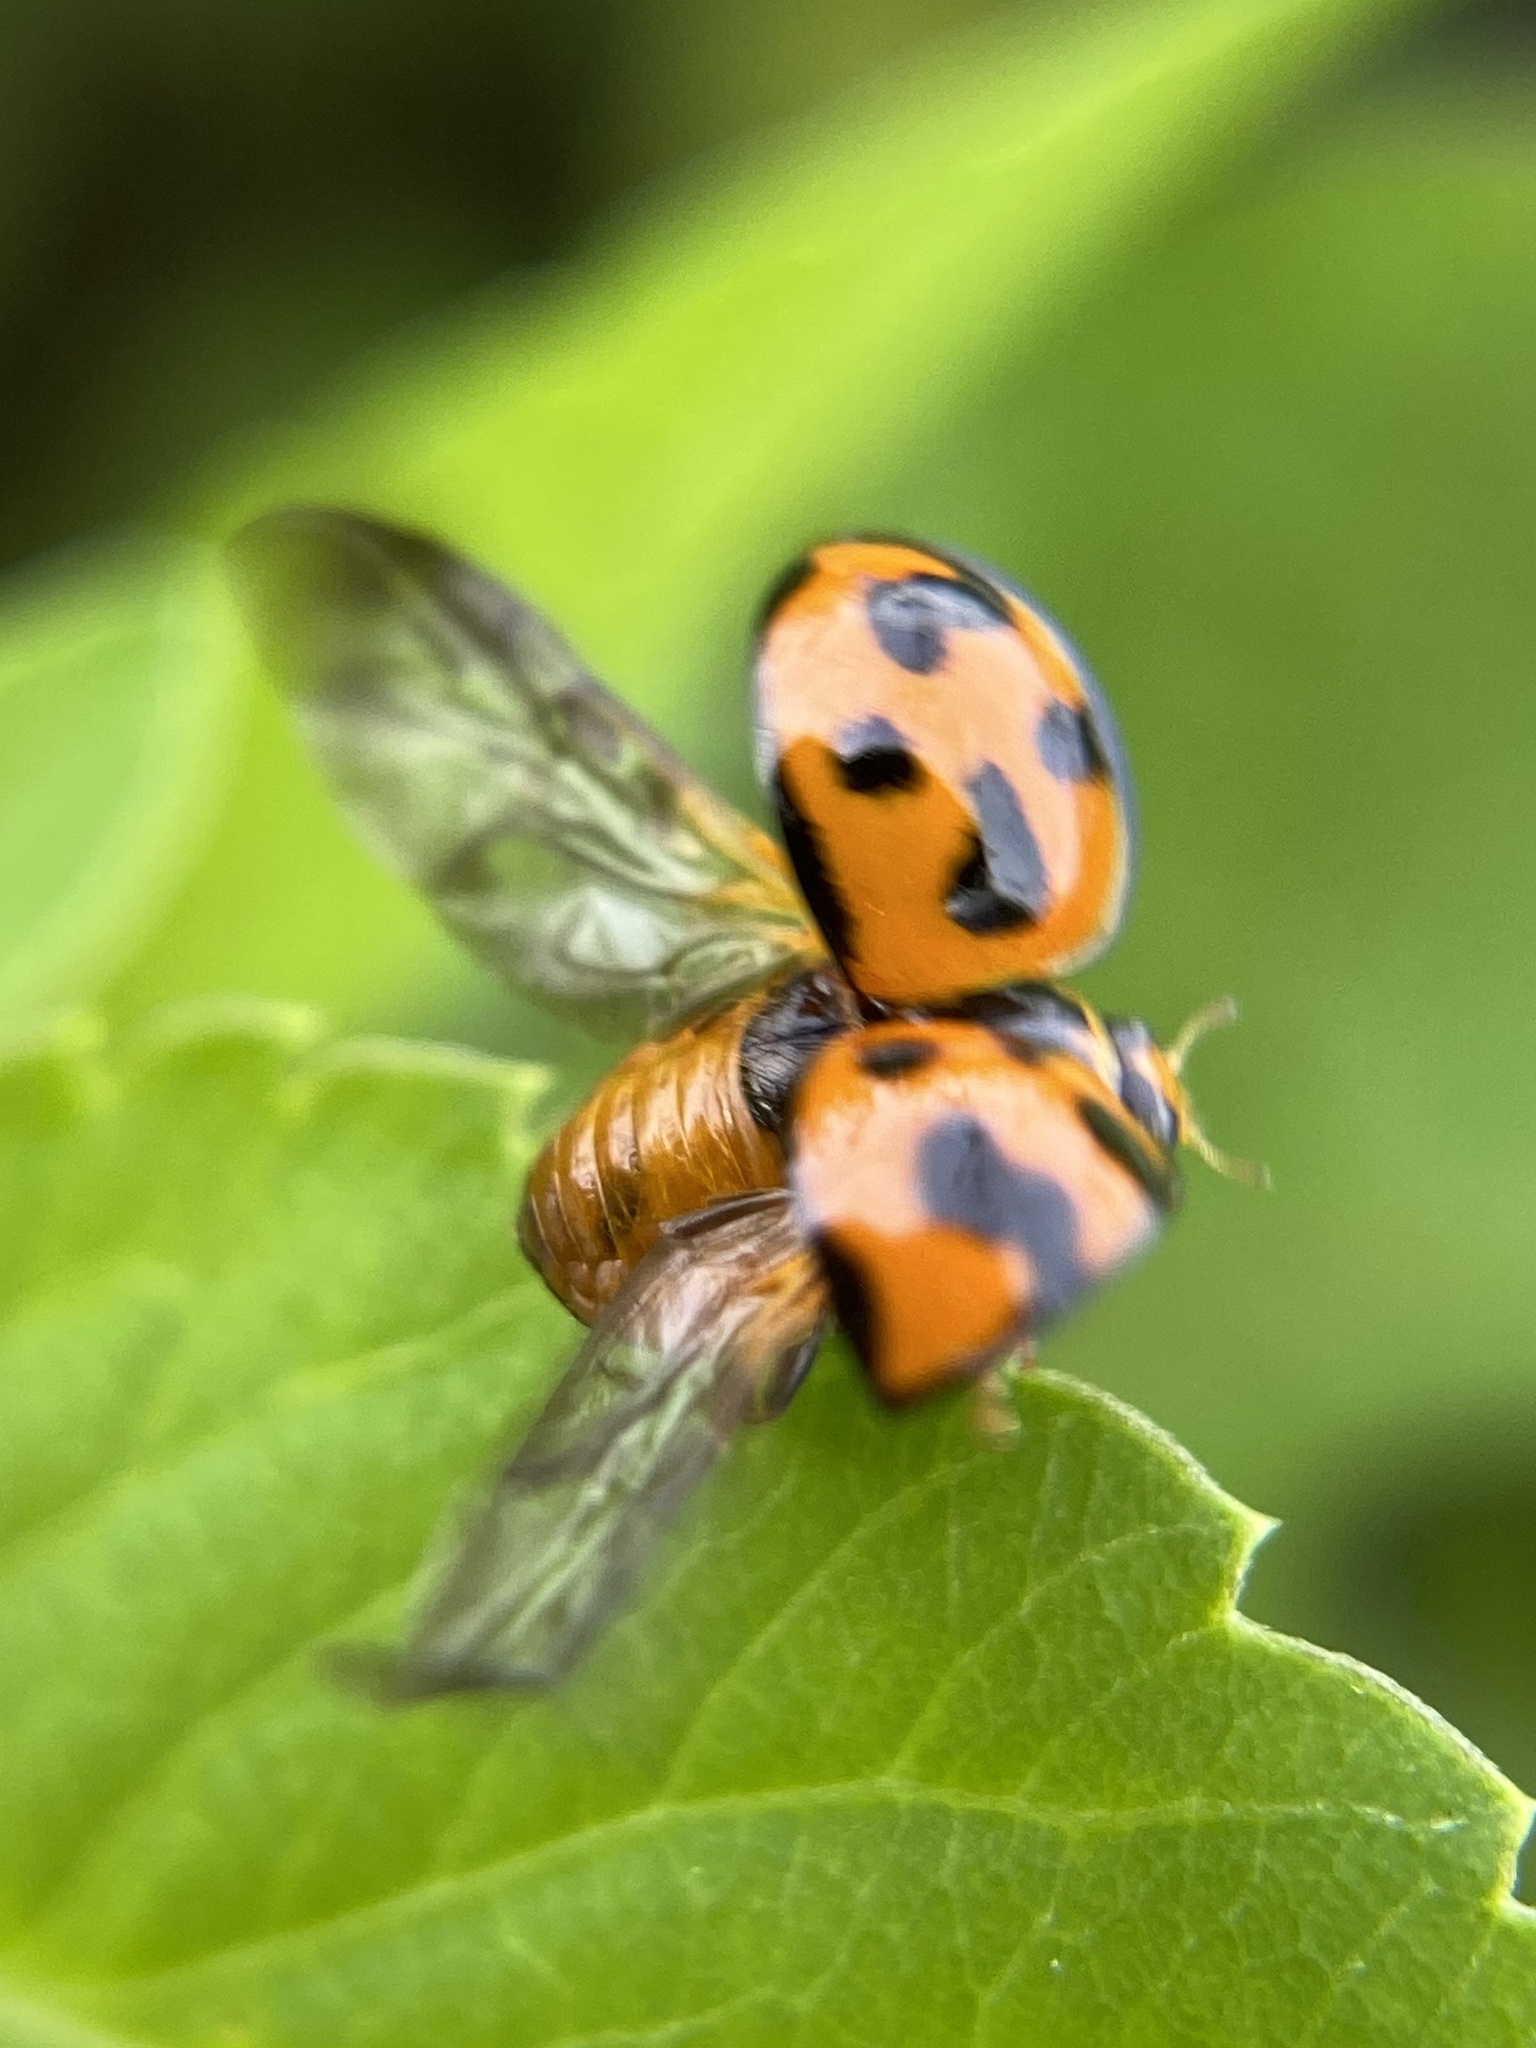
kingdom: Animalia
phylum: Arthropoda
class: Insecta
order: Coleoptera
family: Coccinellidae
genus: Coelophora
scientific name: Coelophora inaequalis
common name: Common australian lady beetle
